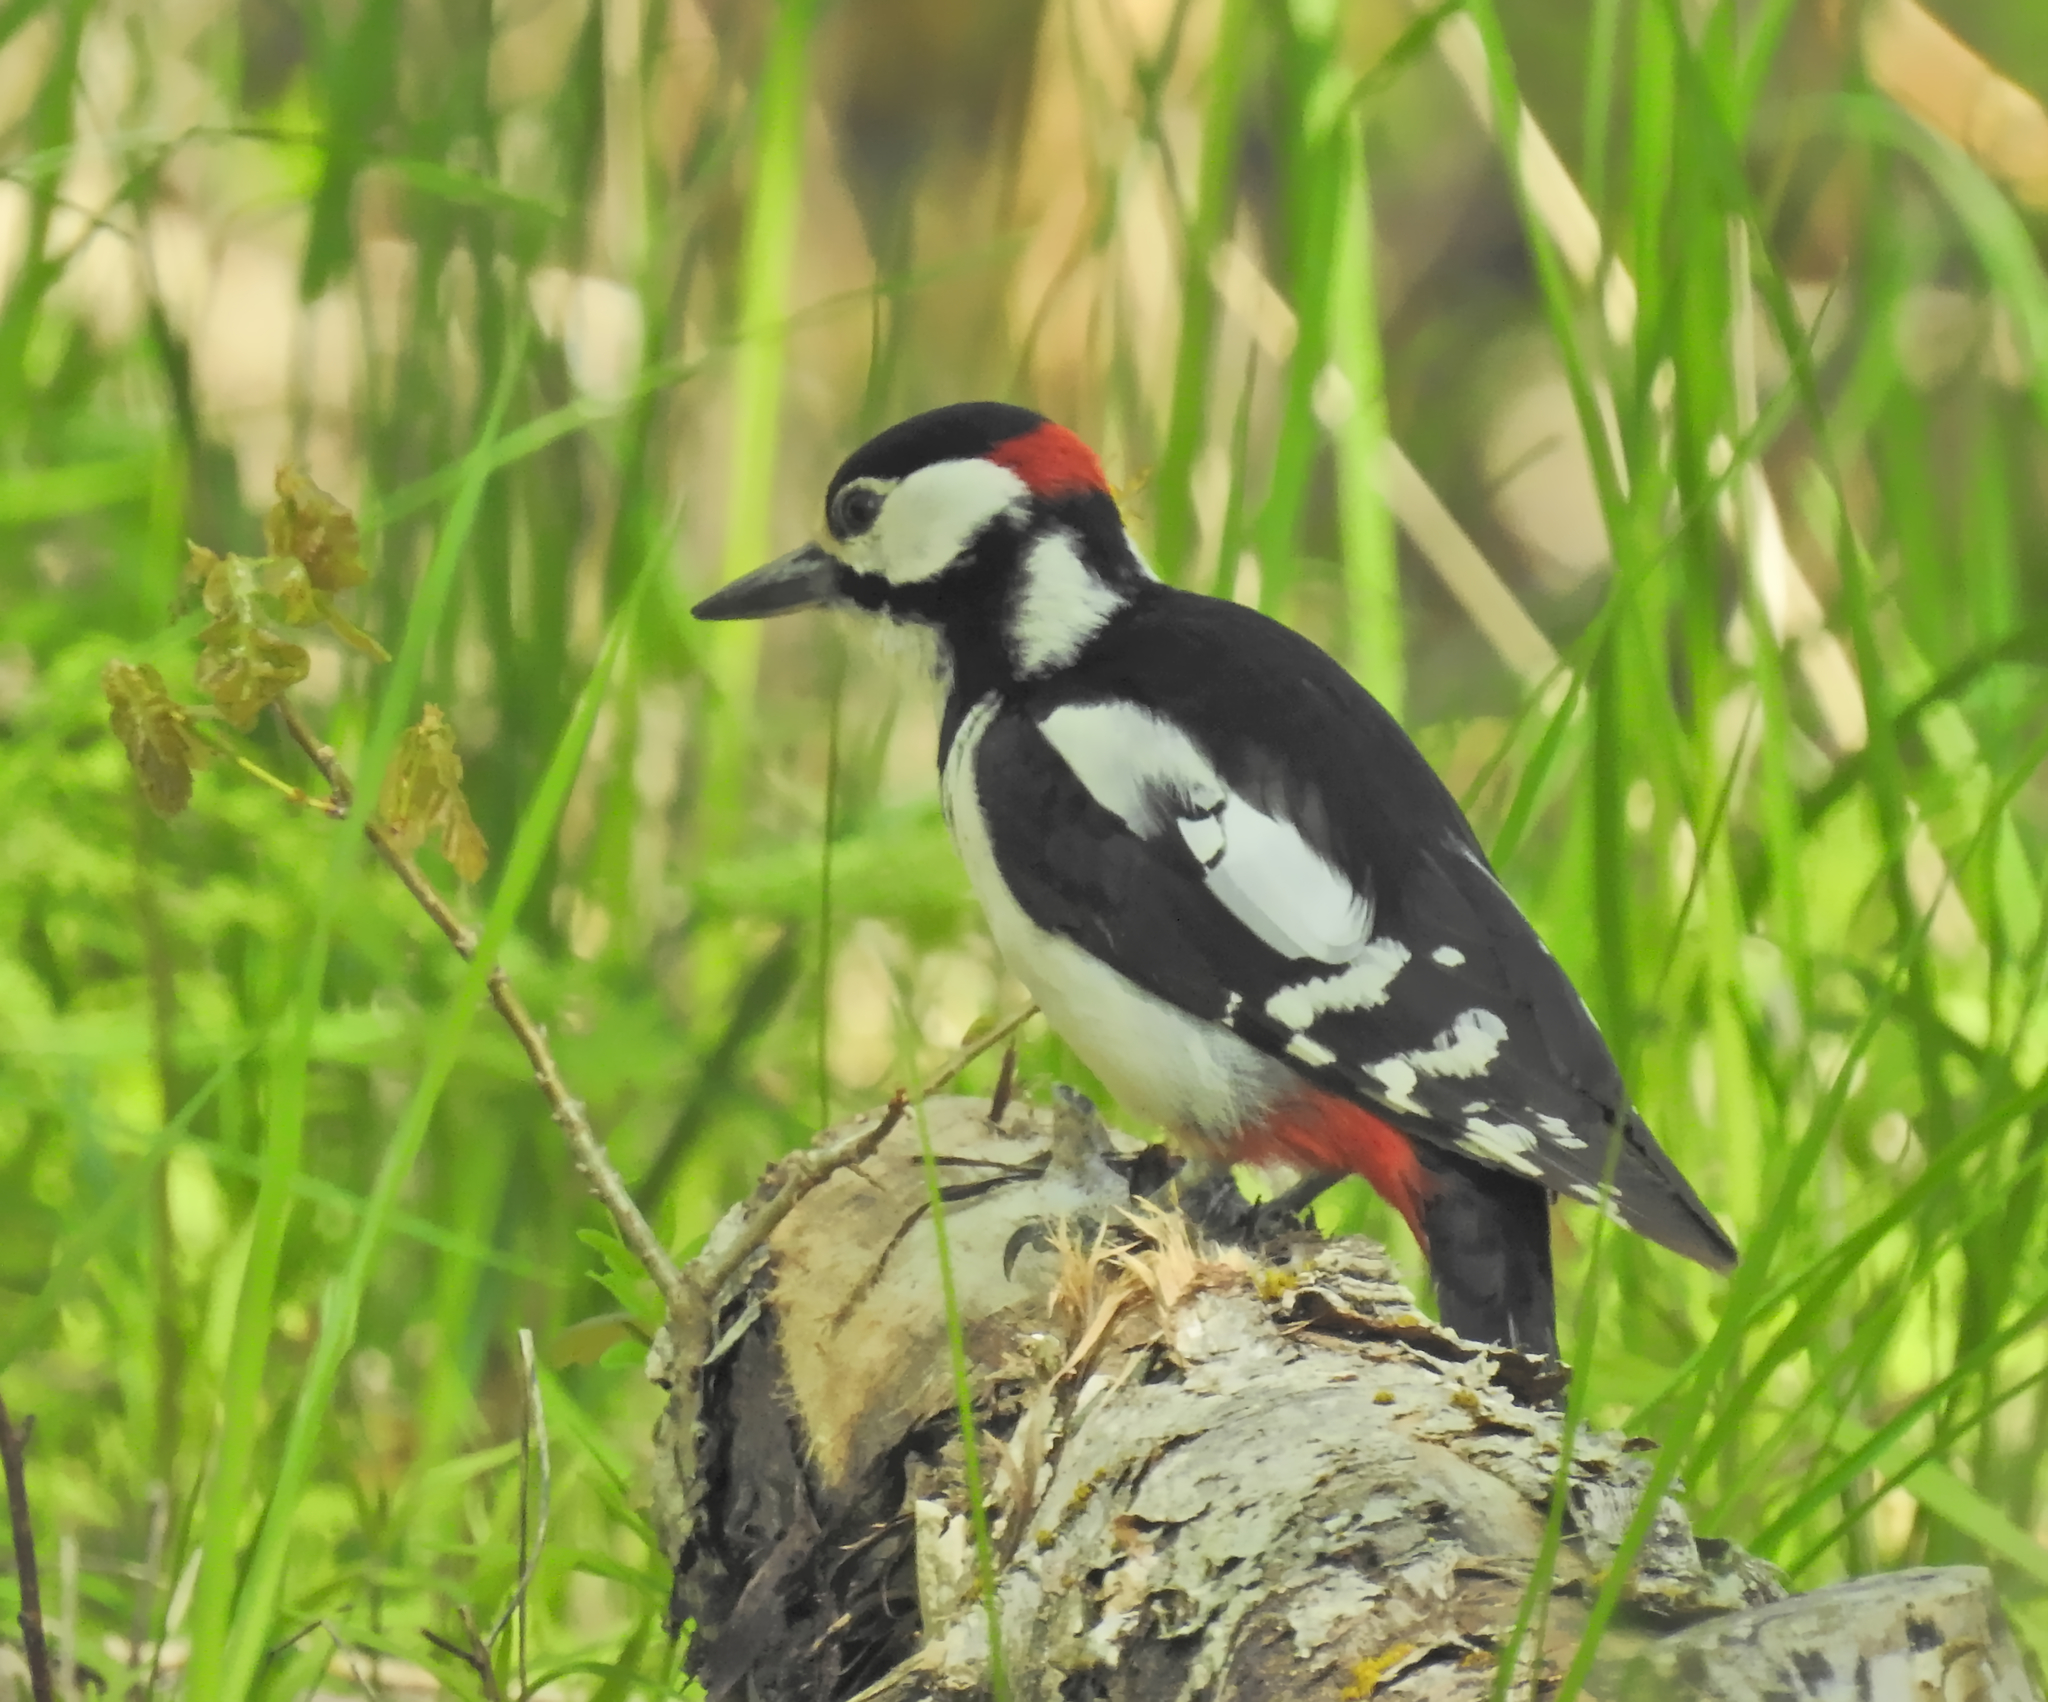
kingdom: Animalia
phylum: Chordata
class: Aves
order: Piciformes
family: Picidae
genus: Dendrocopos
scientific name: Dendrocopos major
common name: Great spotted woodpecker
